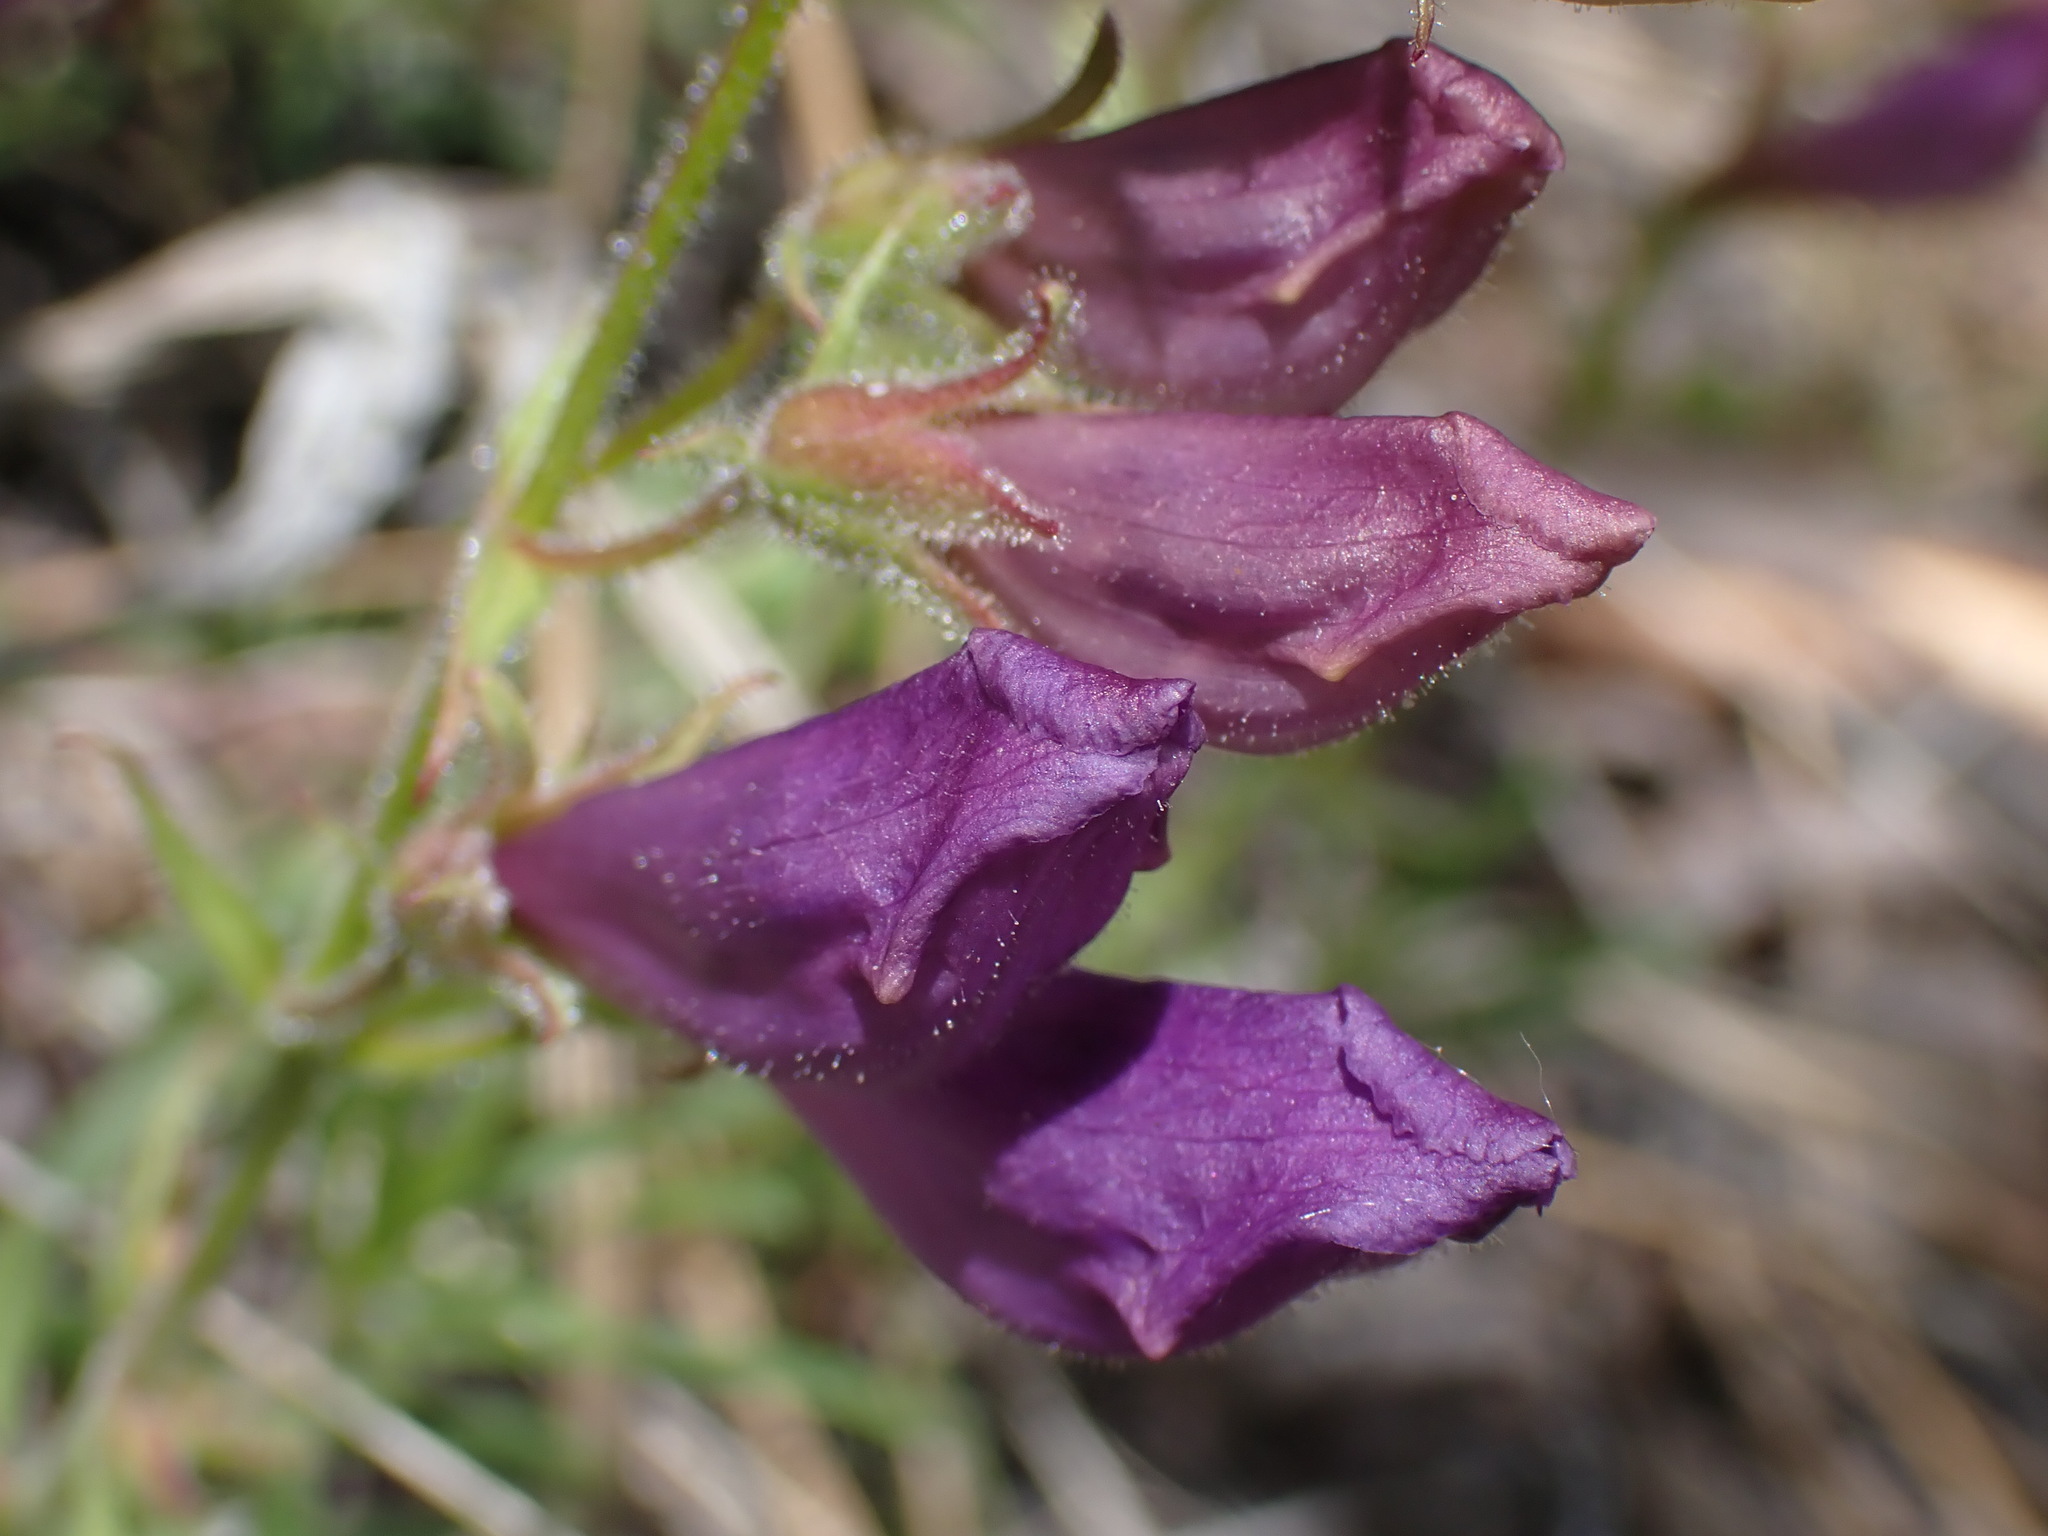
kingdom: Plantae
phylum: Tracheophyta
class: Magnoliopsida
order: Lamiales
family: Plantaginaceae
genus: Penstemon
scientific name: Penstemon fruticosus
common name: Bush penstemon
